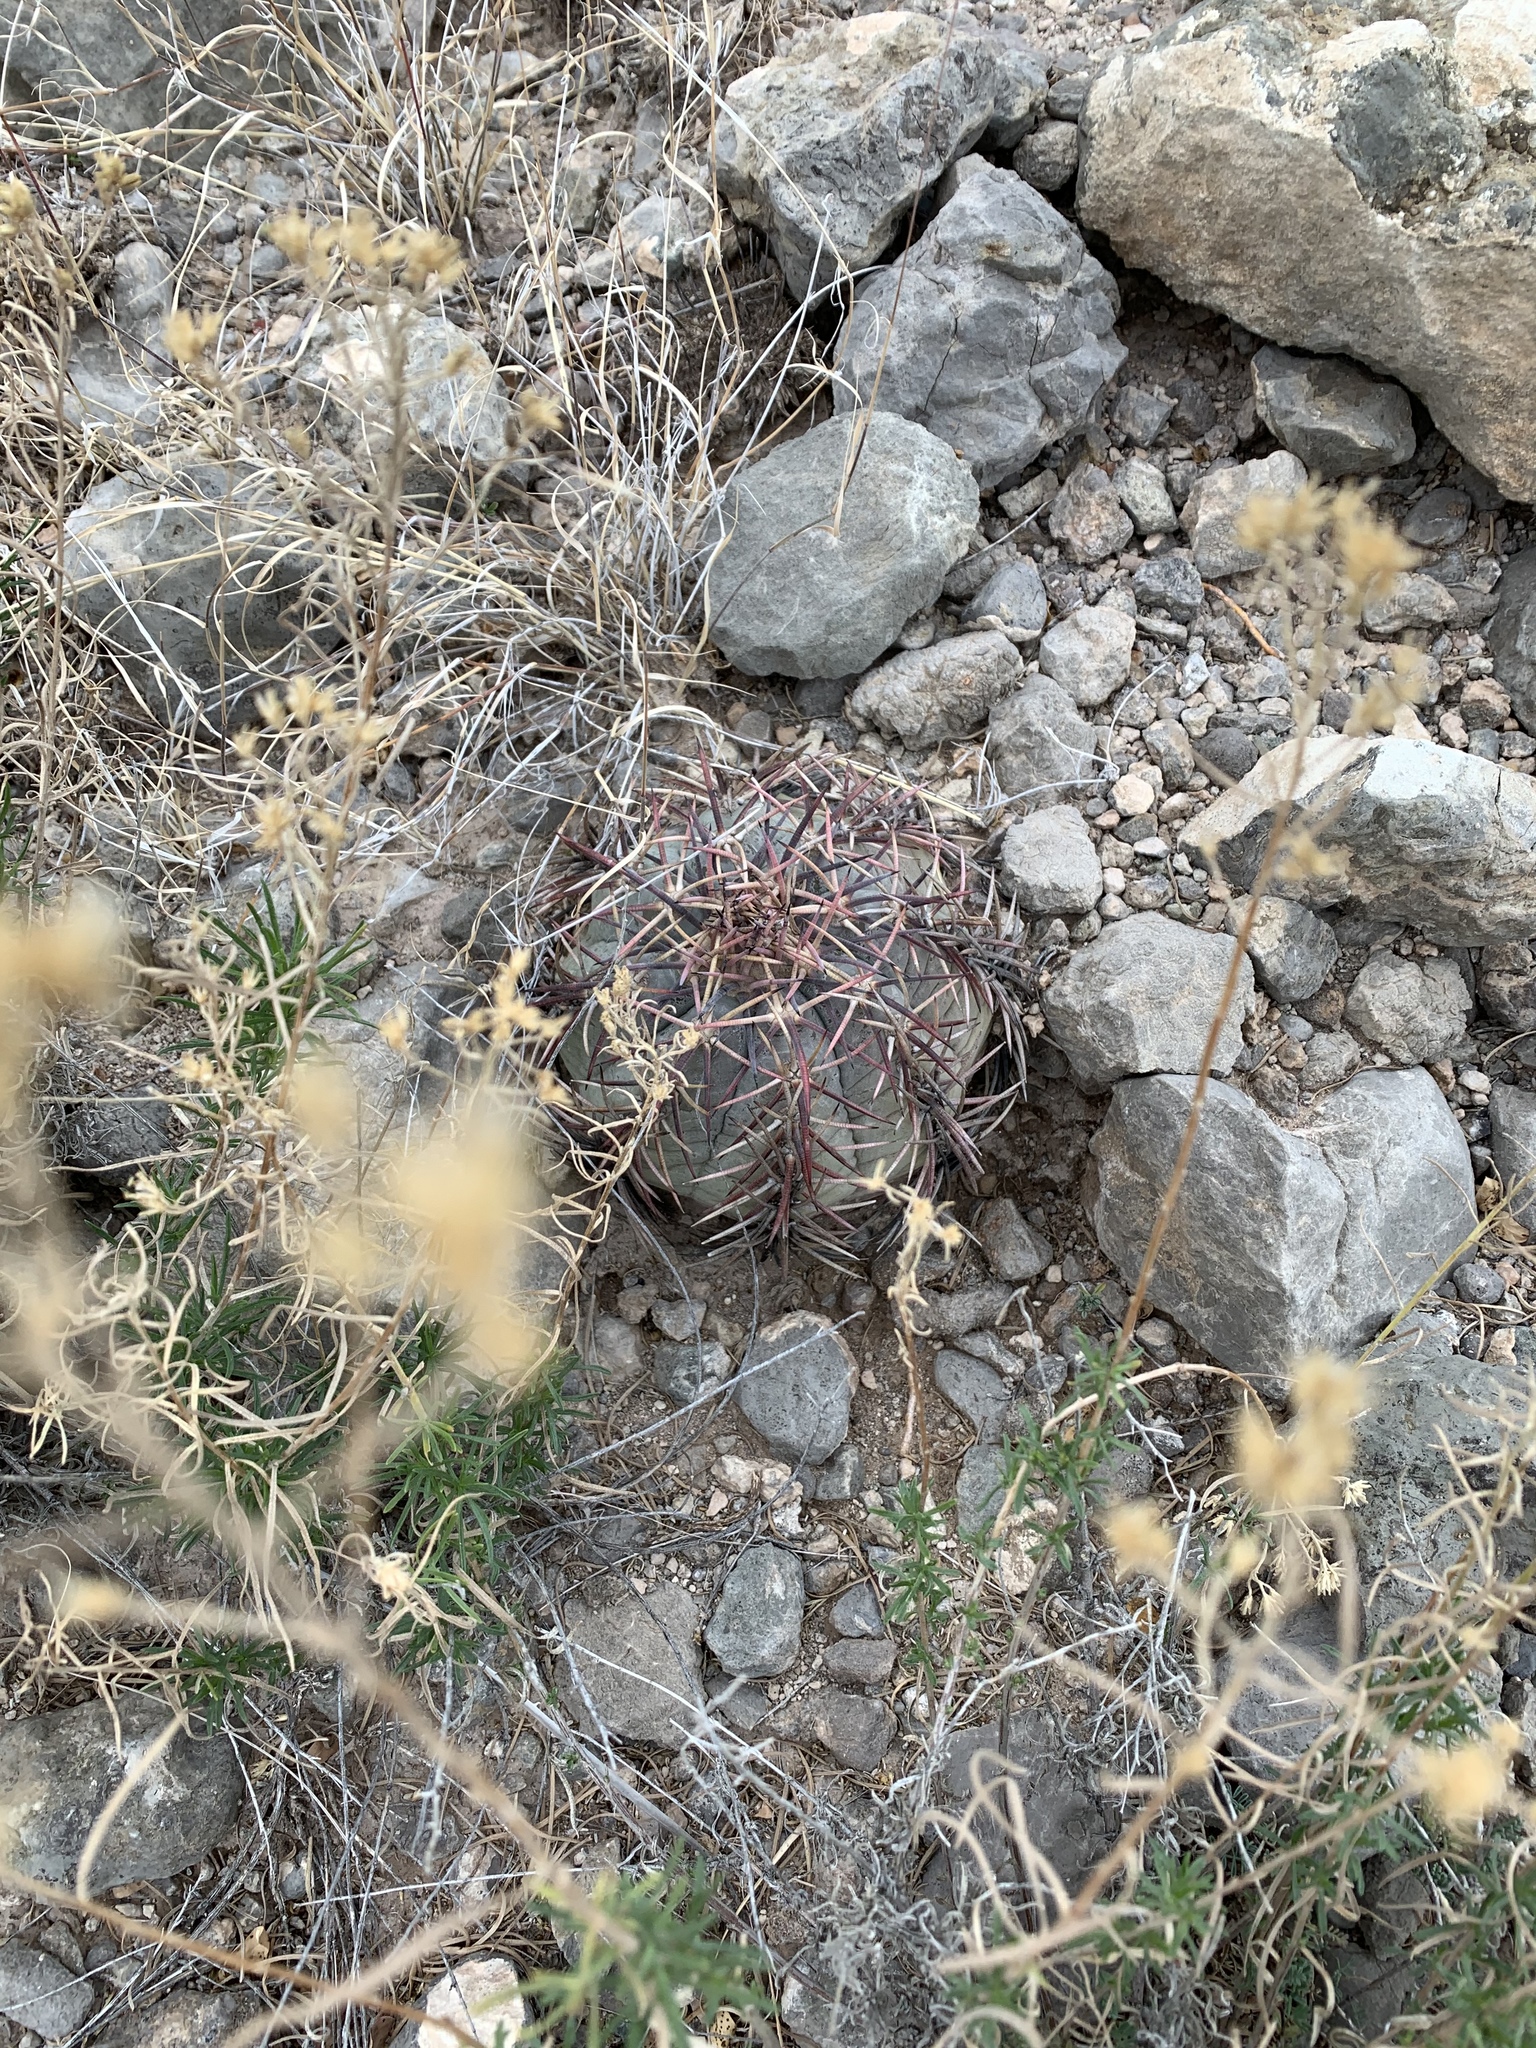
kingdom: Plantae
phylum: Tracheophyta
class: Magnoliopsida
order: Caryophyllales
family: Cactaceae
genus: Echinocactus
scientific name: Echinocactus horizonthalonius
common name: Devilshead
